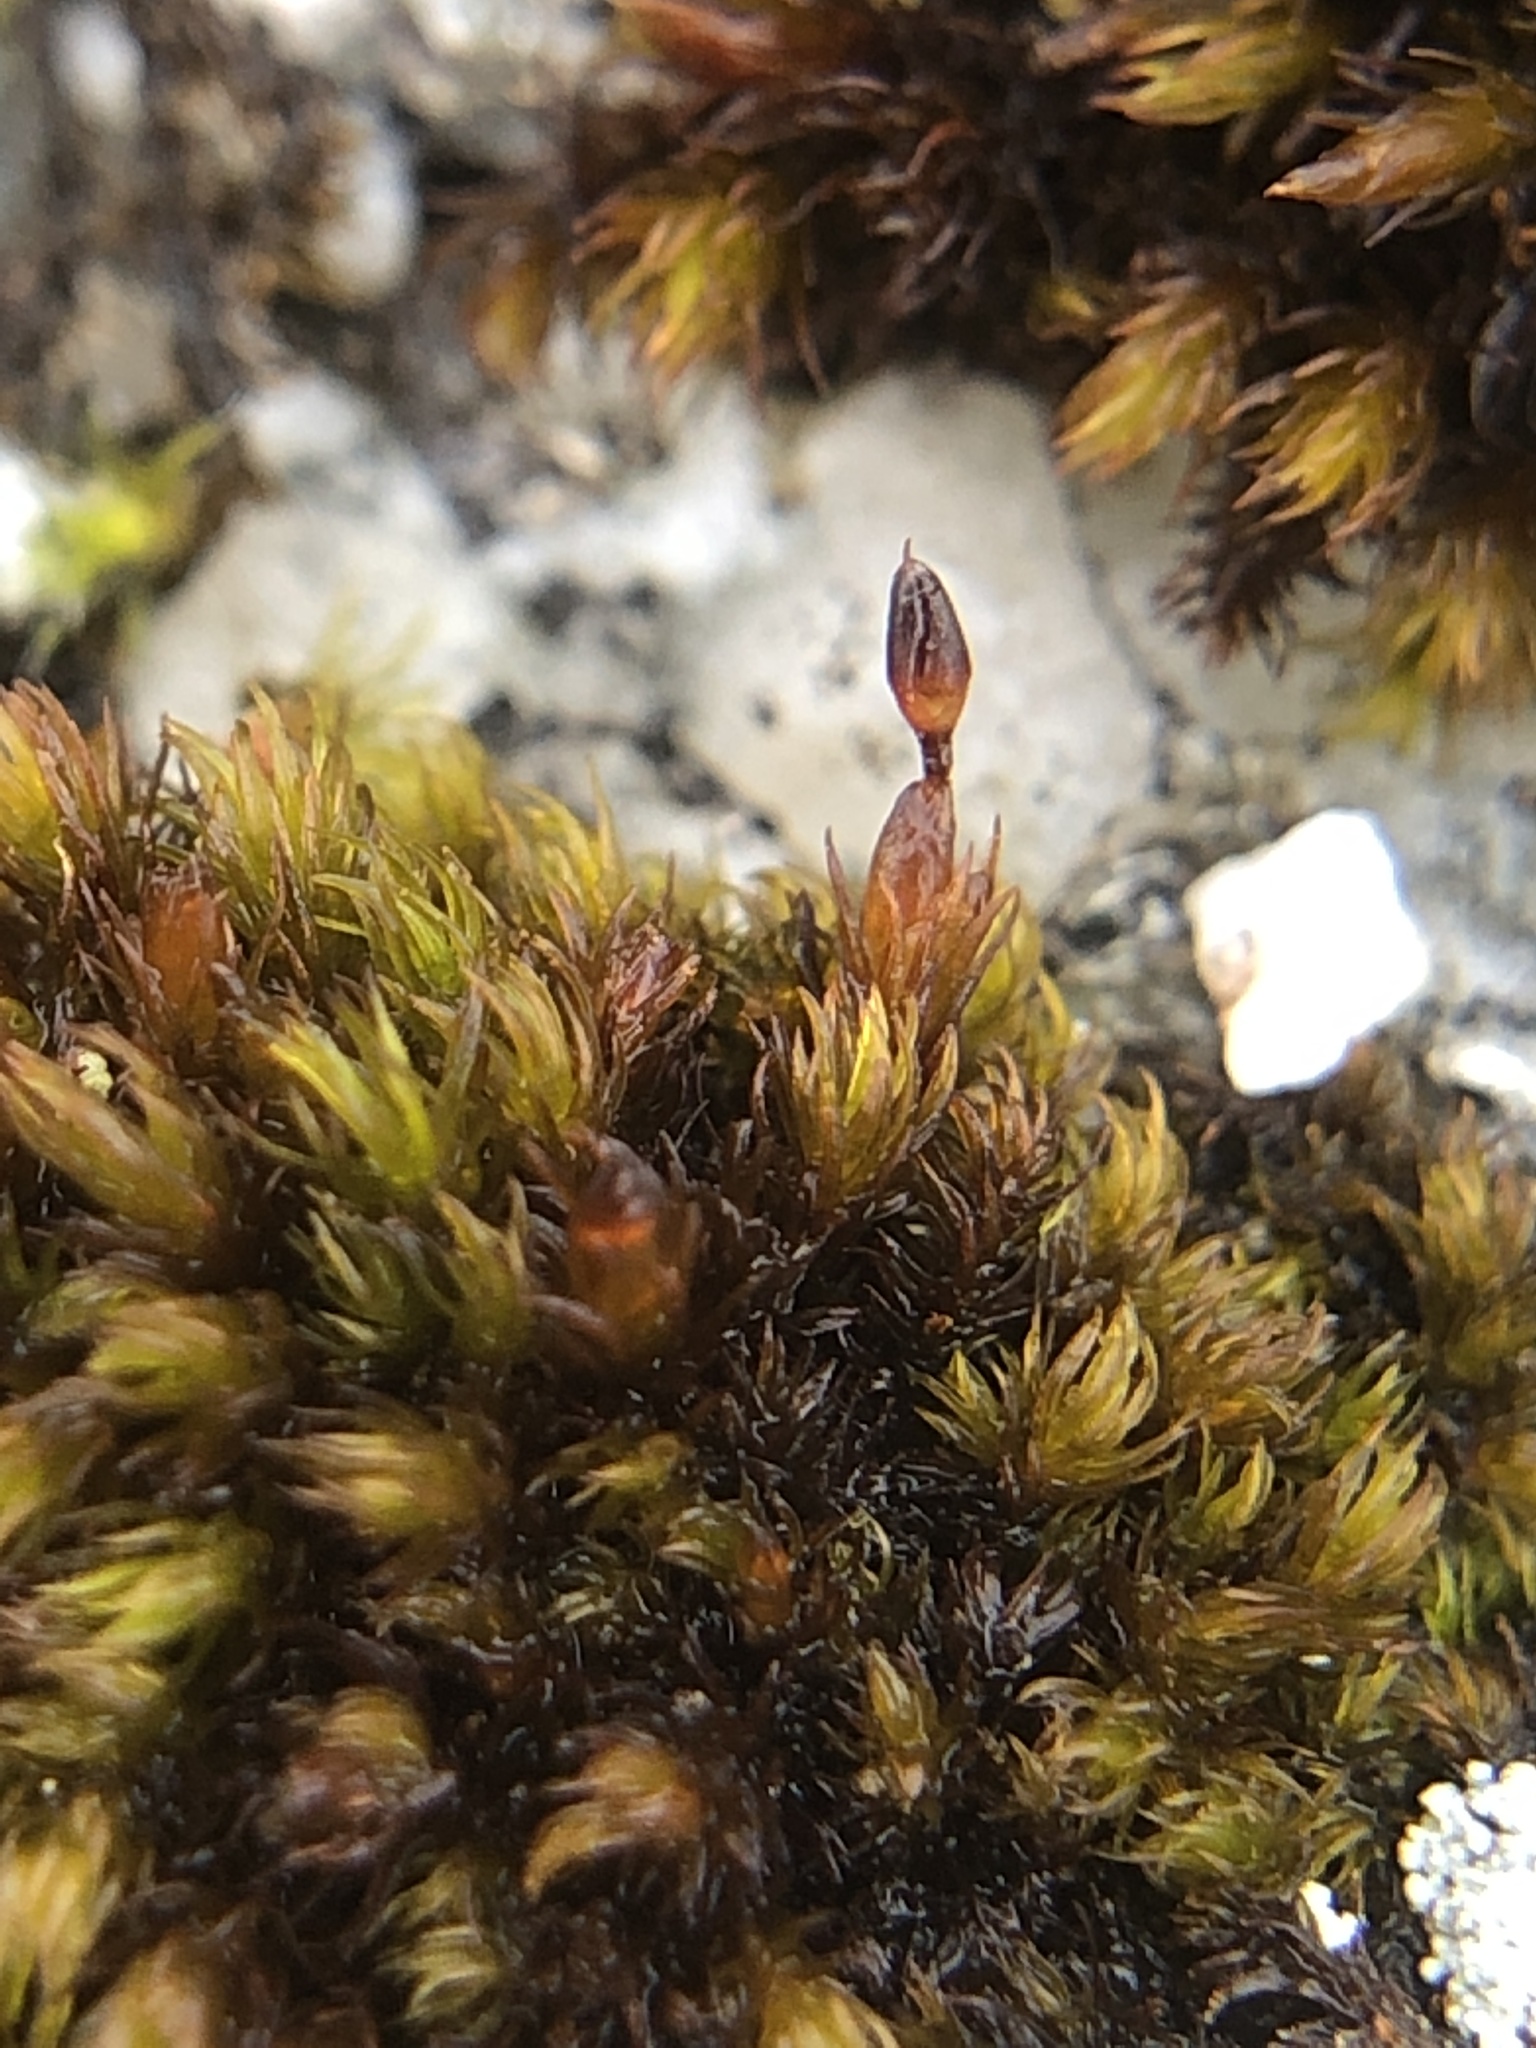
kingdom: Plantae
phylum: Bryophyta
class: Andreaeopsida
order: Andreaeales
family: Andreaeaceae
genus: Andreaea
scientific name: Andreaea rothii
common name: Dusky rock moss
